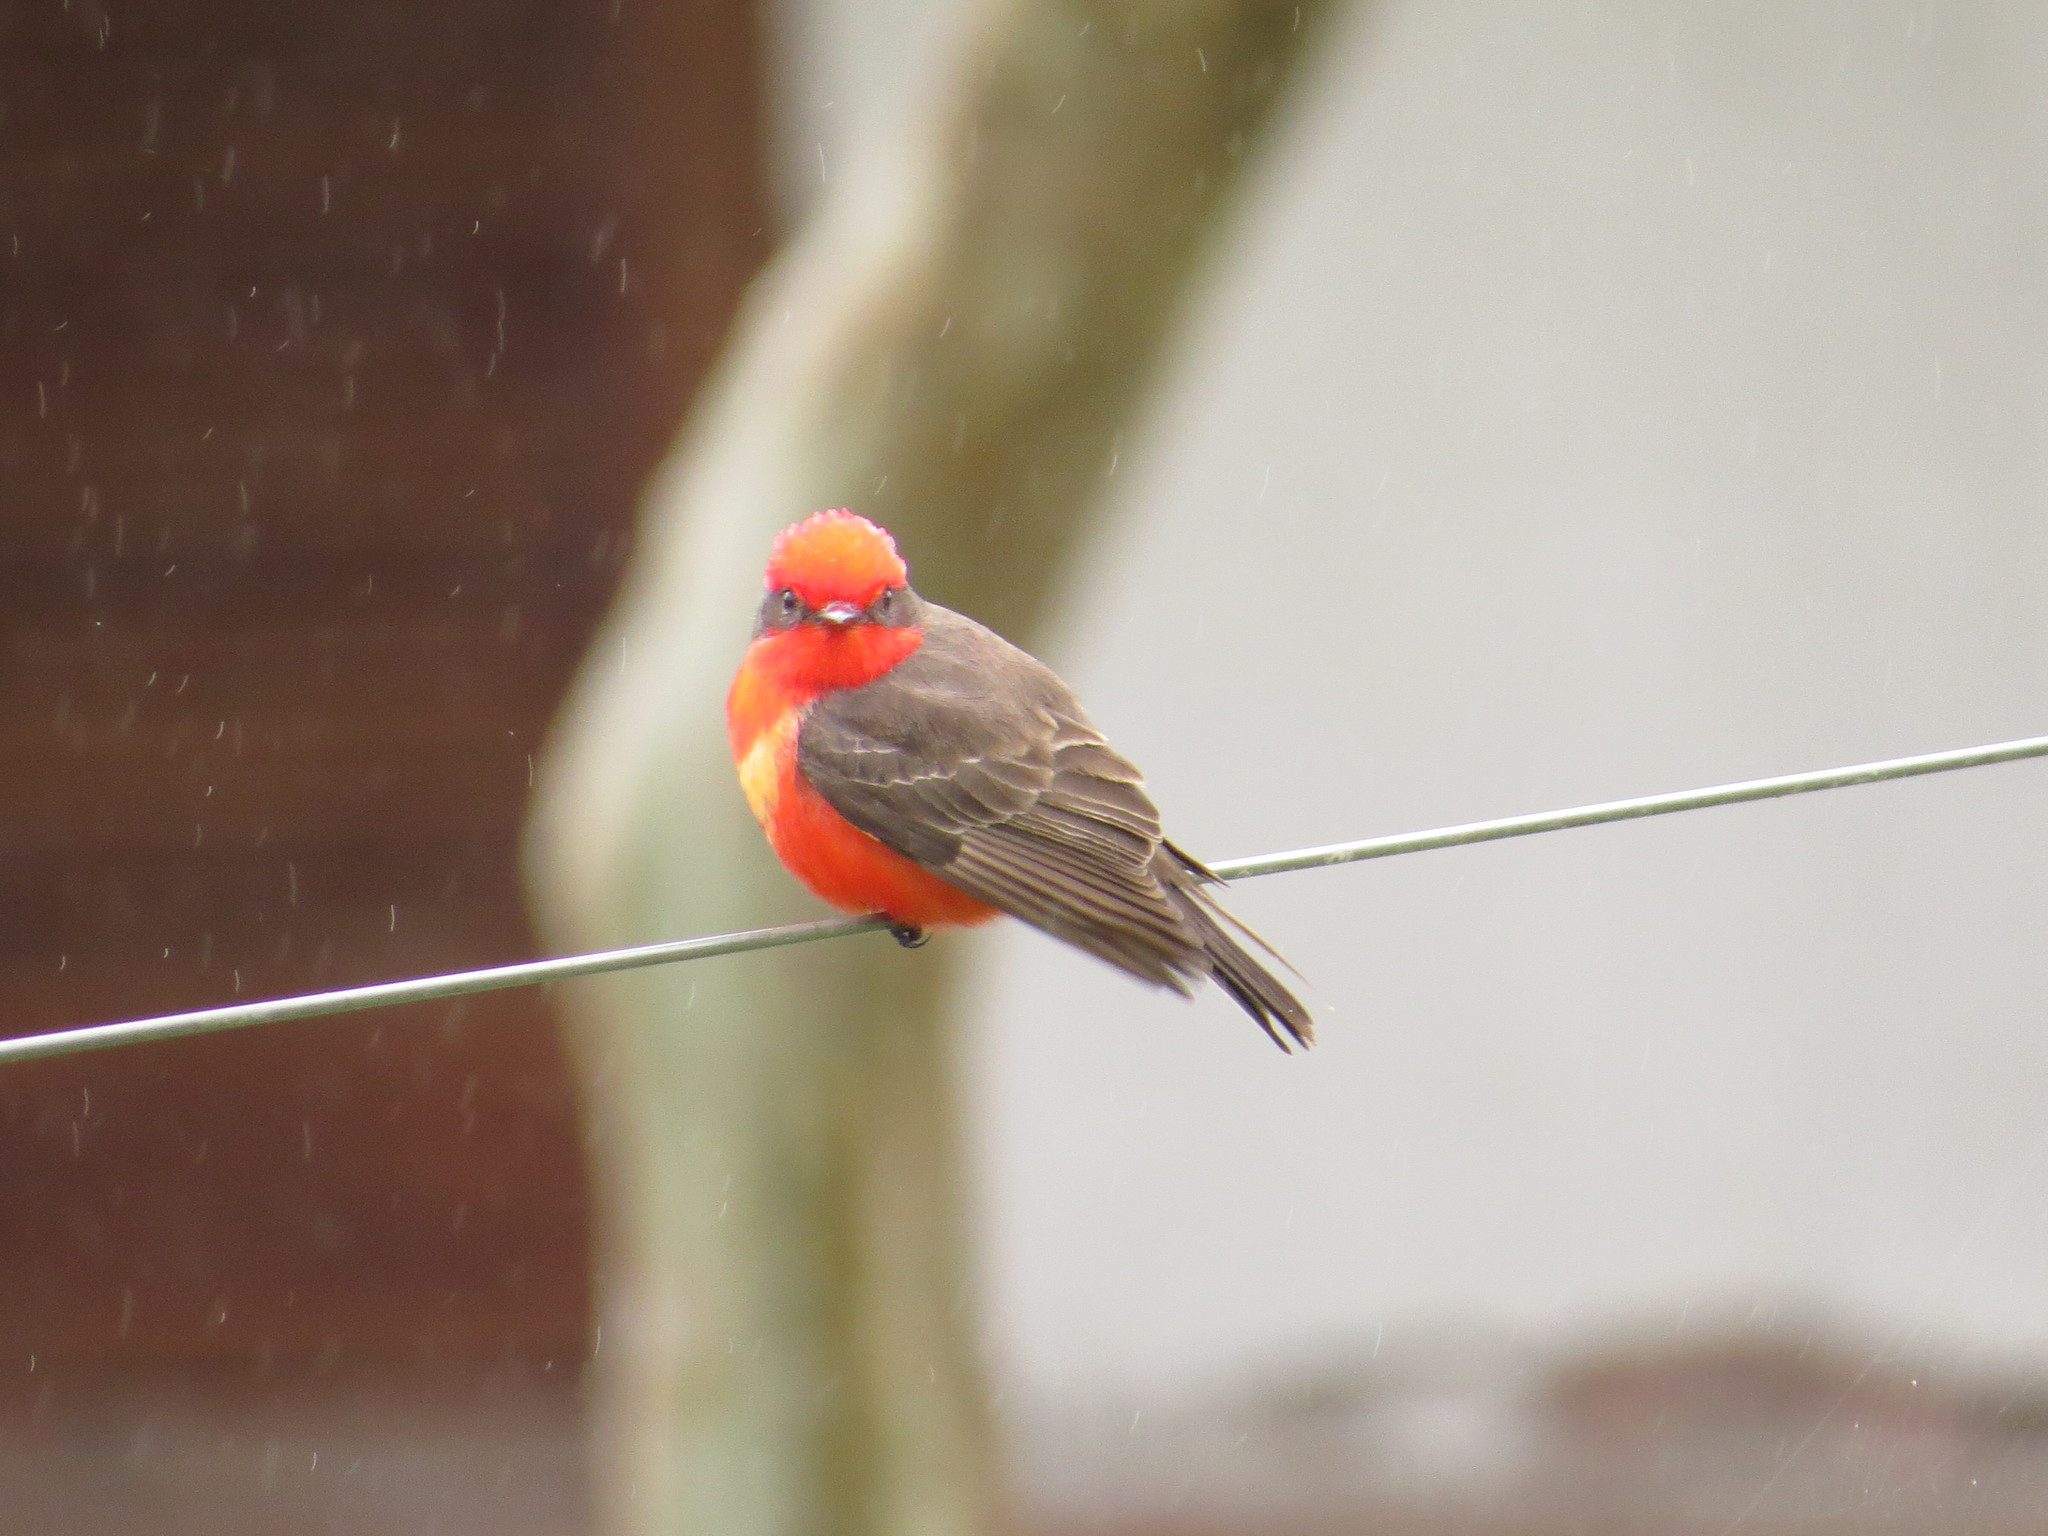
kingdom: Animalia
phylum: Chordata
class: Aves
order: Passeriformes
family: Tyrannidae
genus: Pyrocephalus
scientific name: Pyrocephalus rubinus
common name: Vermilion flycatcher
